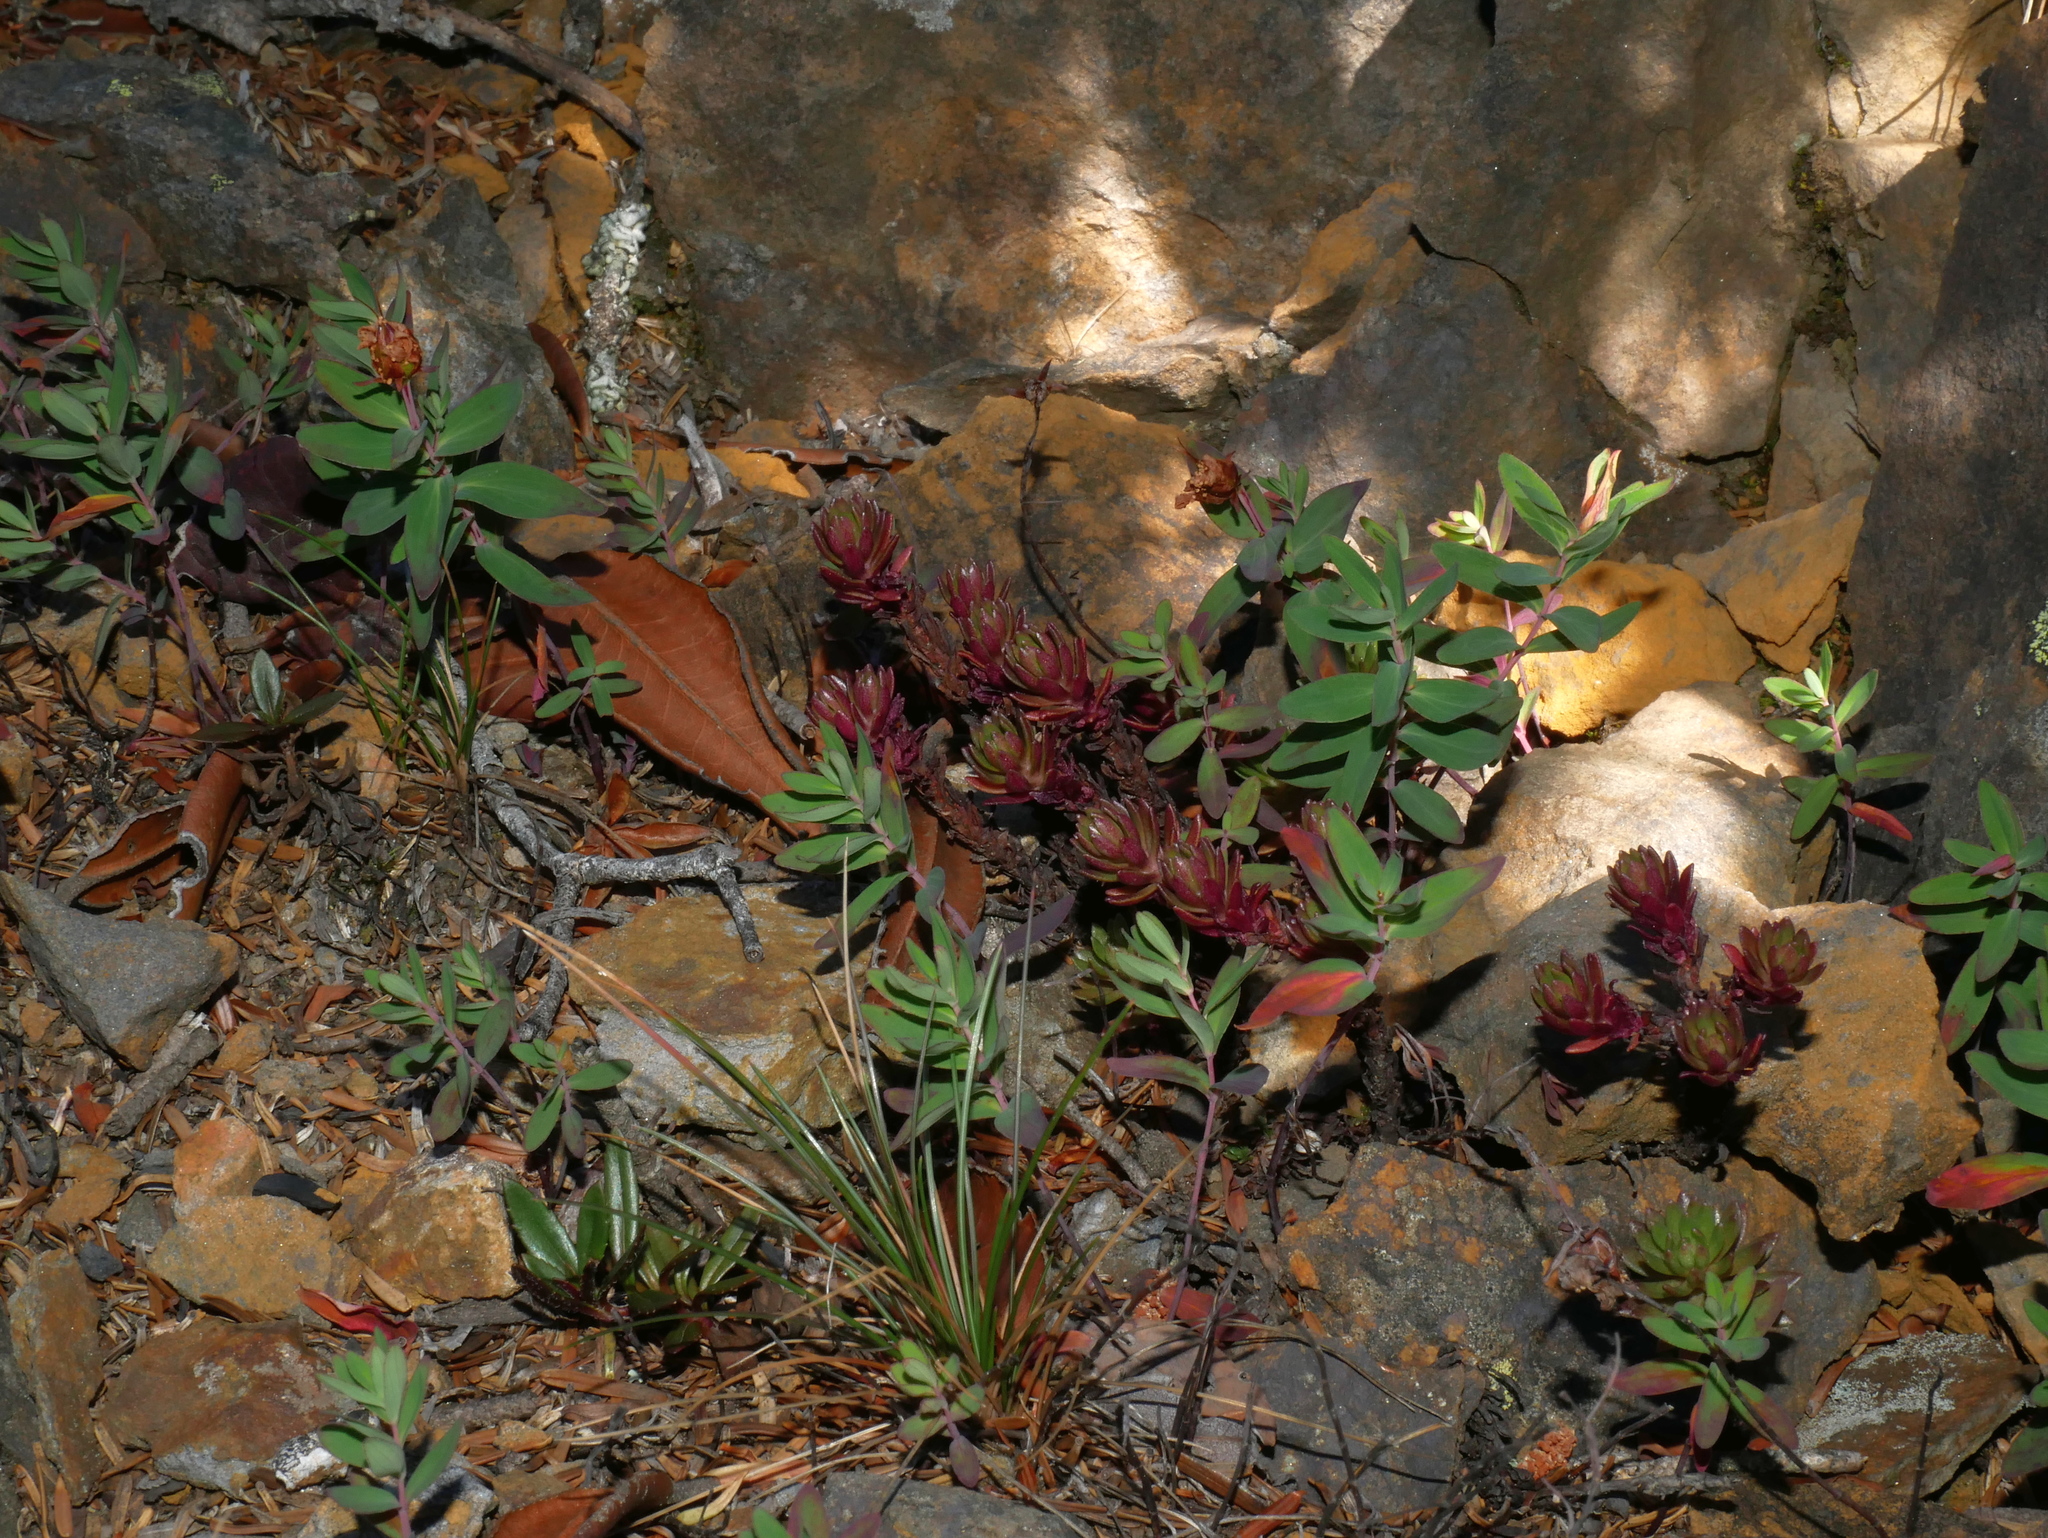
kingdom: Plantae
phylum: Tracheophyta
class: Magnoliopsida
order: Saxifragales
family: Crassulaceae
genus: Sedum
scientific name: Sedum morrisonense
